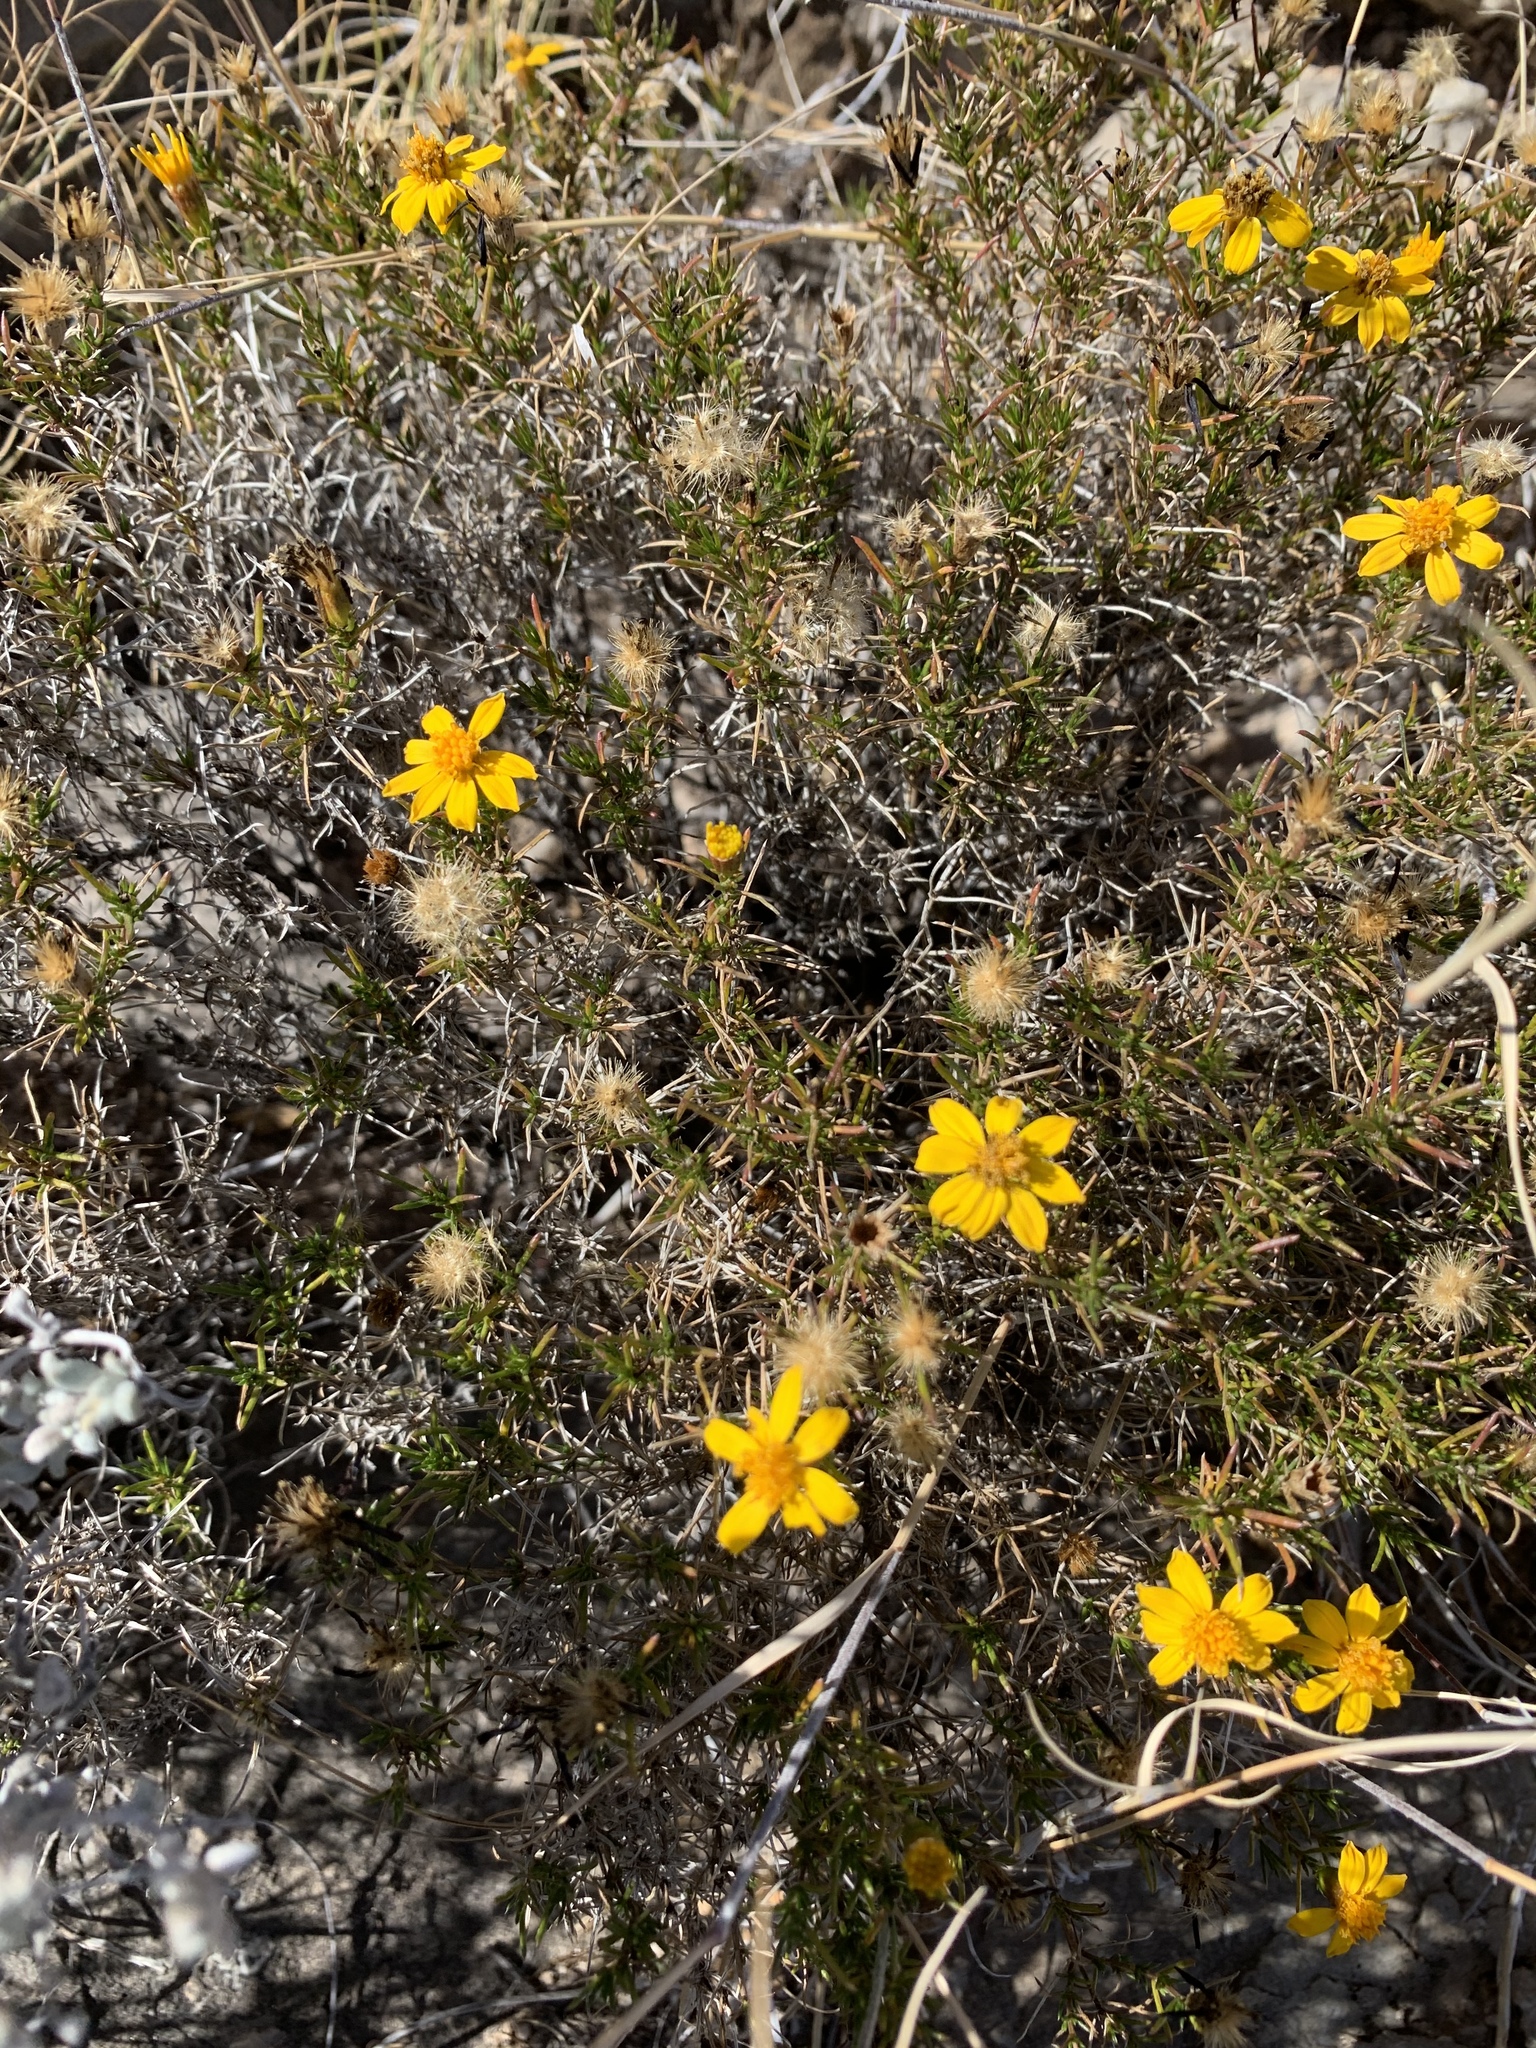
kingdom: Plantae
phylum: Tracheophyta
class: Magnoliopsida
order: Asterales
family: Asteraceae
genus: Thymophylla
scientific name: Thymophylla acerosa
